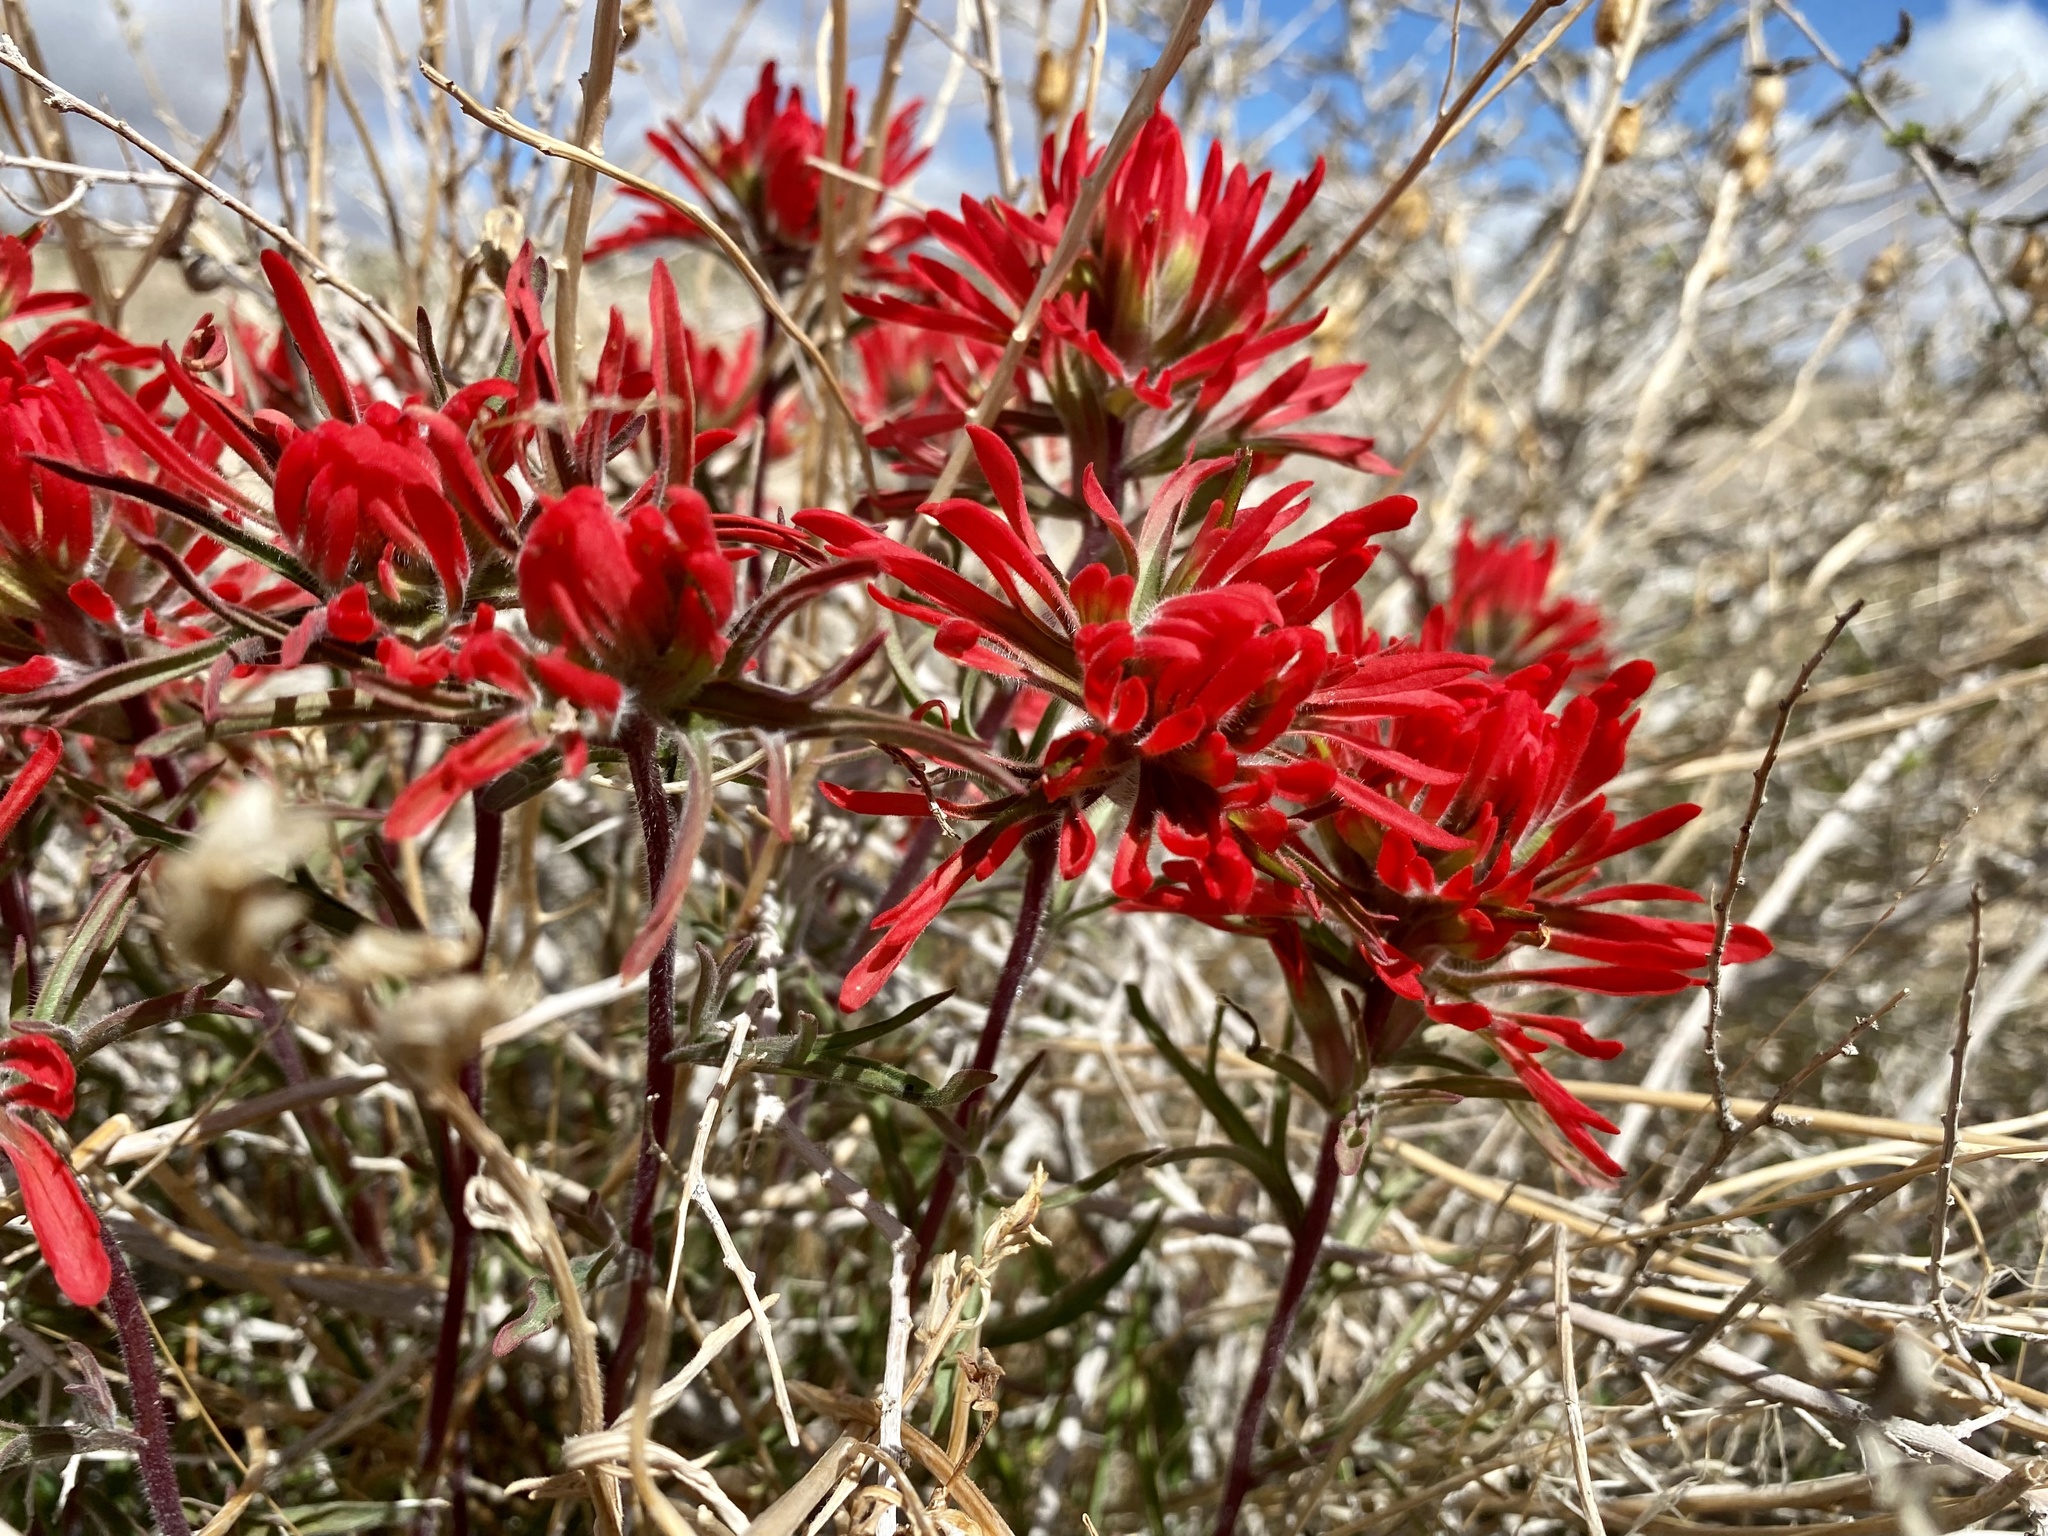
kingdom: Plantae
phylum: Tracheophyta
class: Magnoliopsida
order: Lamiales
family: Orobanchaceae
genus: Castilleja
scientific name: Castilleja chromosa
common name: Desert paintbrush
